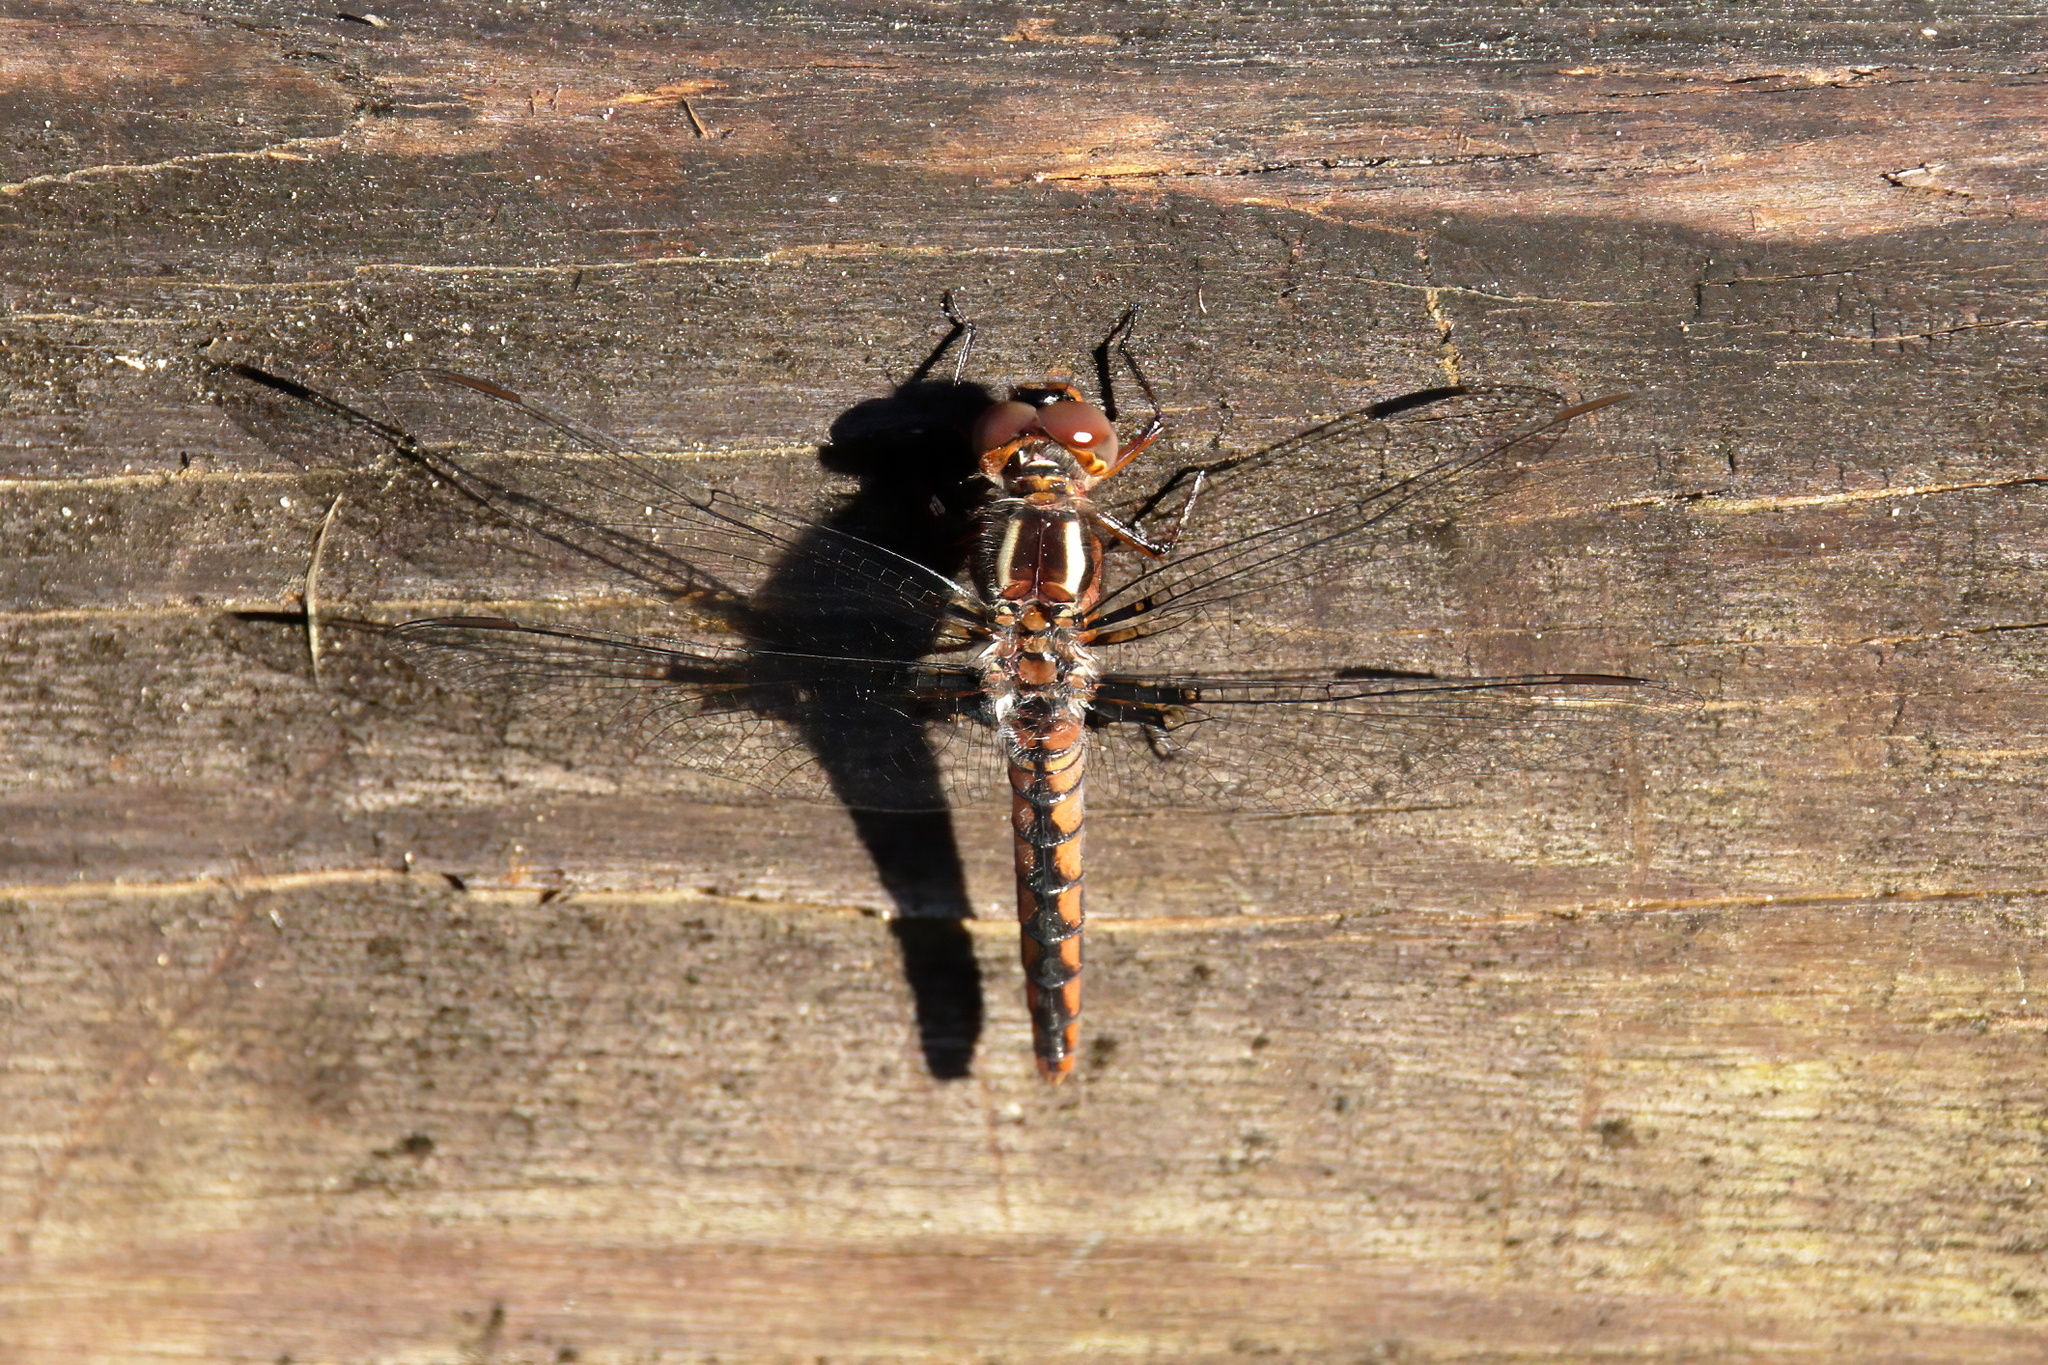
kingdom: Animalia
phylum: Arthropoda
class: Insecta
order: Odonata
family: Libellulidae
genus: Ladona
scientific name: Ladona deplanata
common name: Blue corporal
